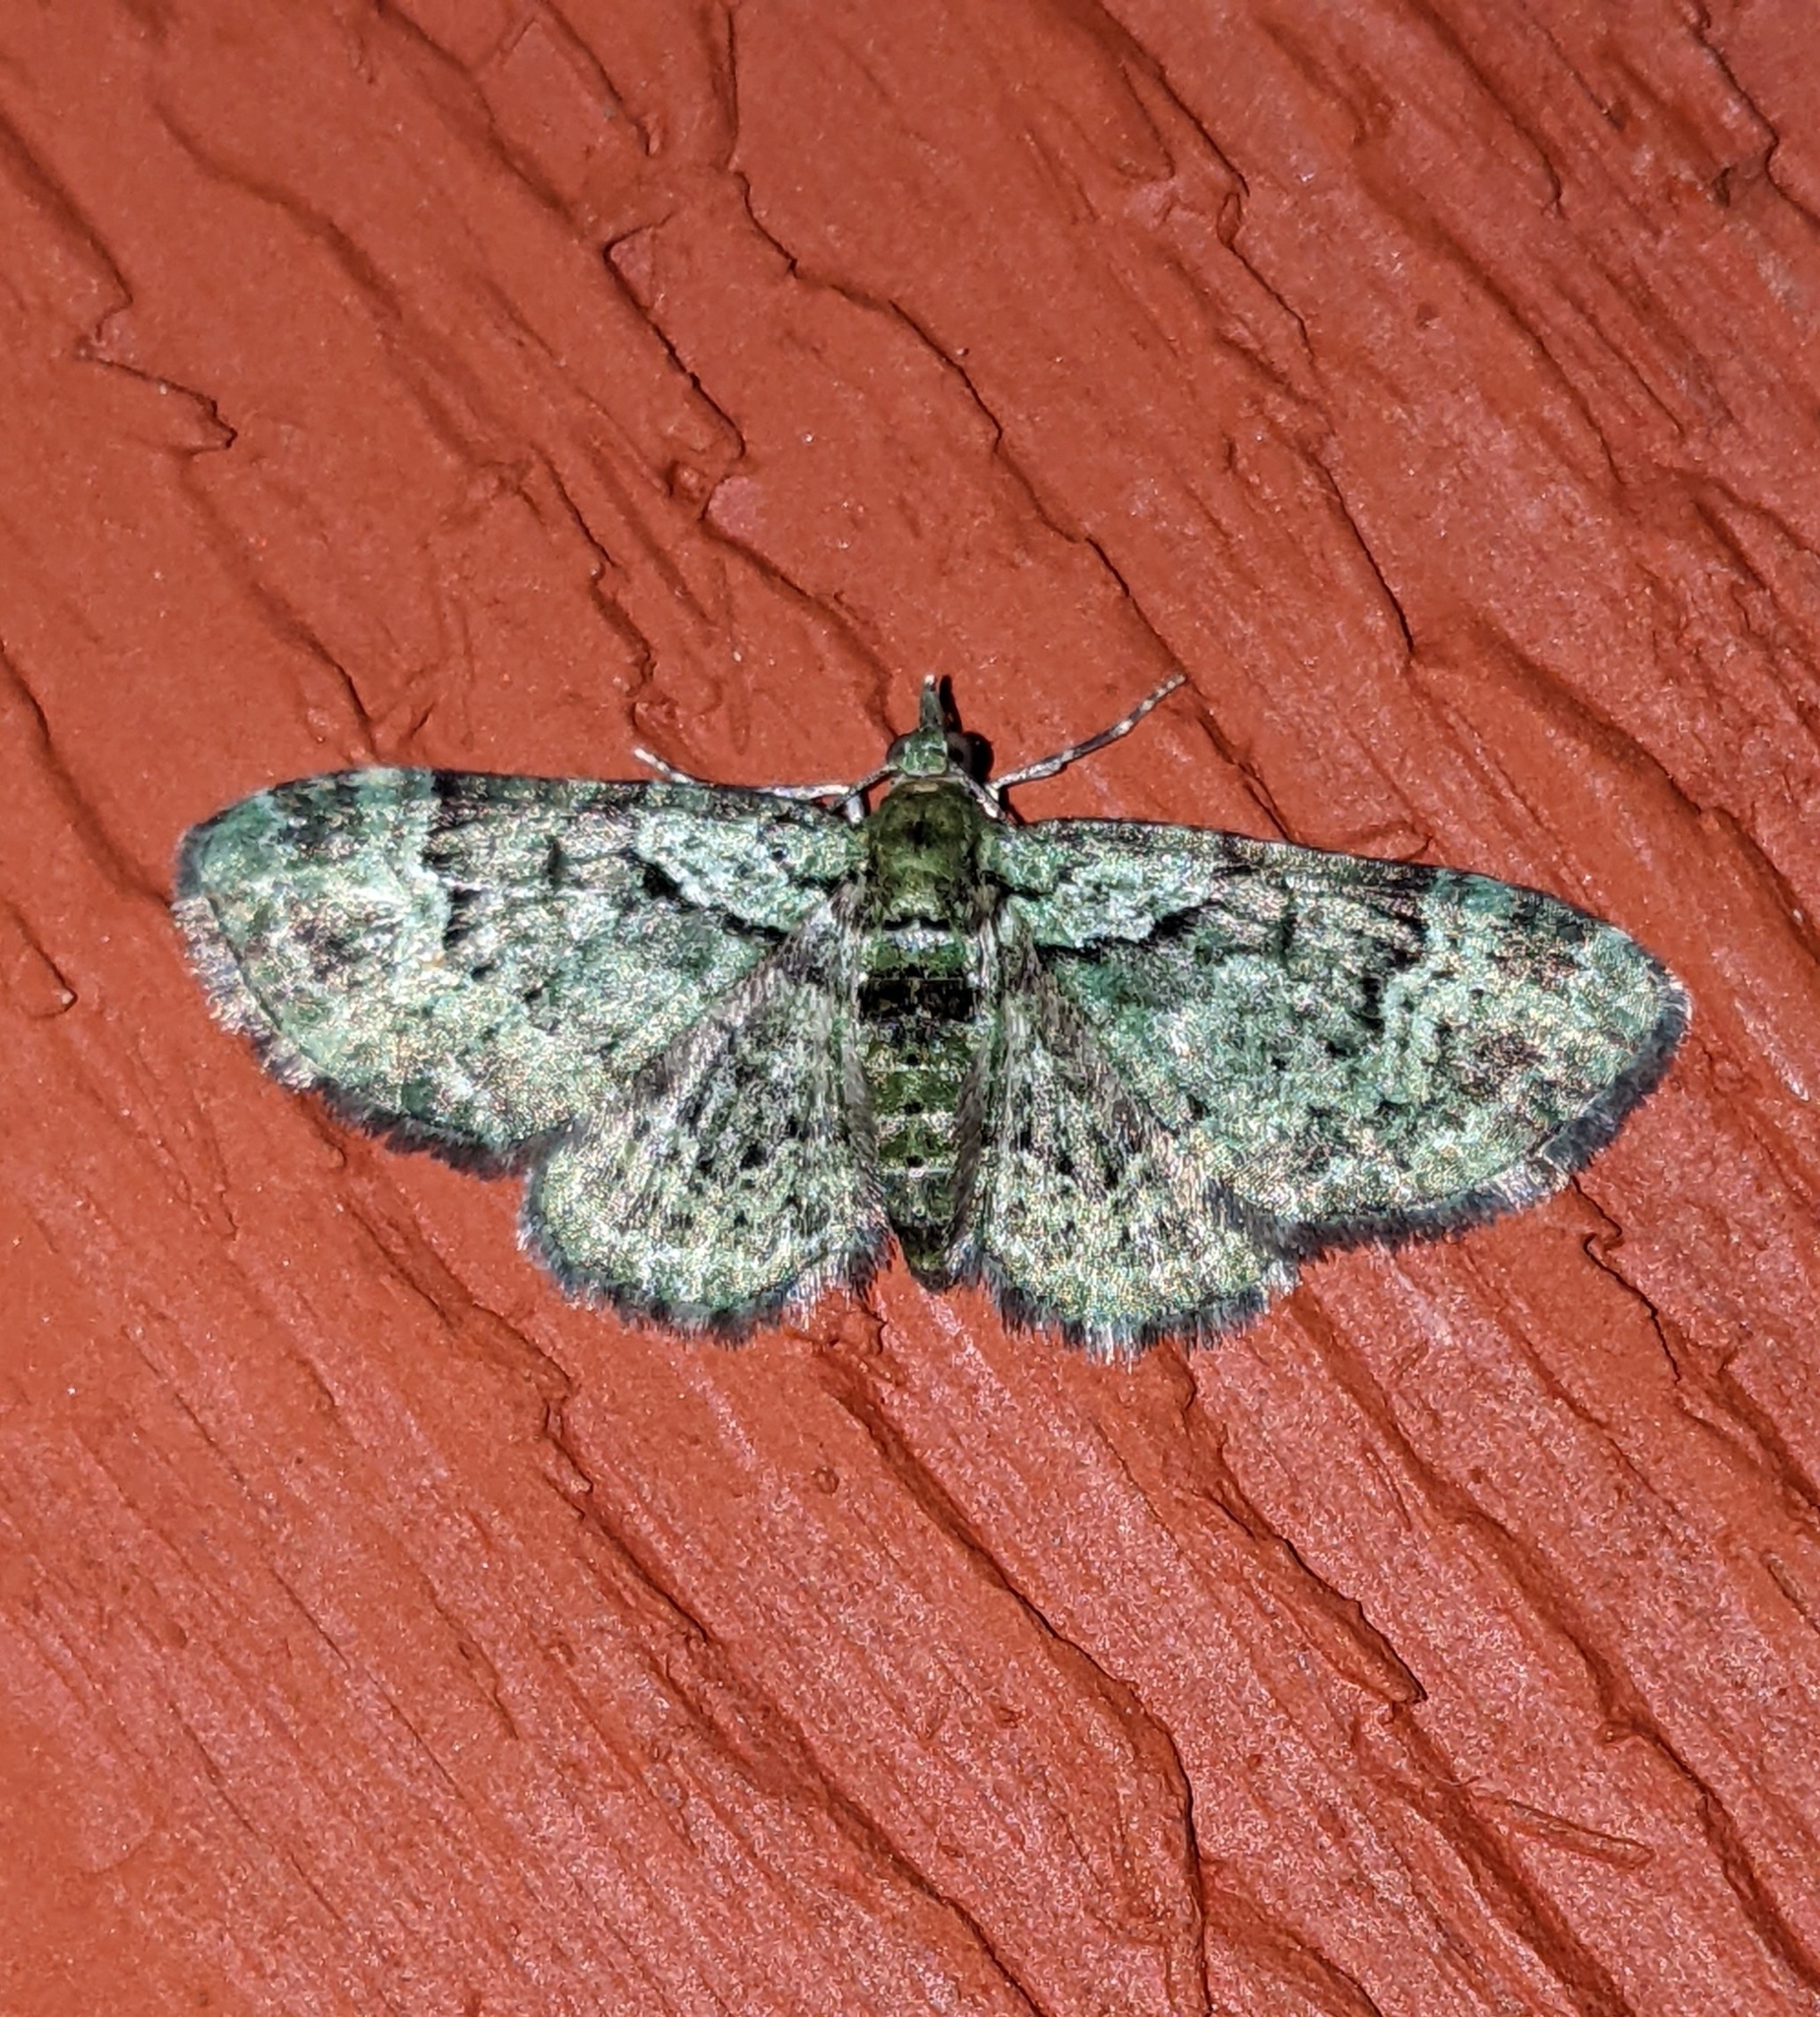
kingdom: Animalia
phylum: Arthropoda
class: Insecta
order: Lepidoptera
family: Geometridae
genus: Pasiphila
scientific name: Pasiphila rectangulata
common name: Green pug
